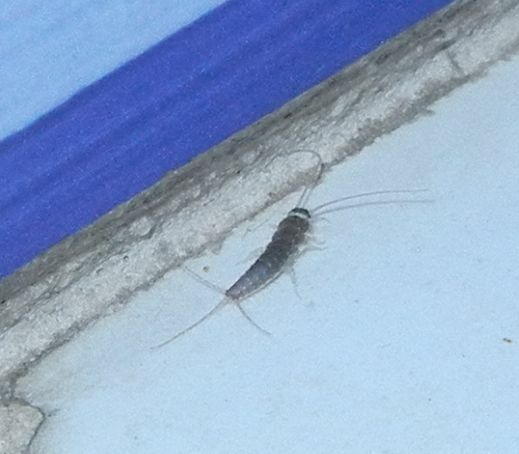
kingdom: Animalia
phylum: Arthropoda
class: Insecta
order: Zygentoma
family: Lepismatidae
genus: Ctenolepisma
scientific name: Ctenolepisma longicaudatum
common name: Silverfish
